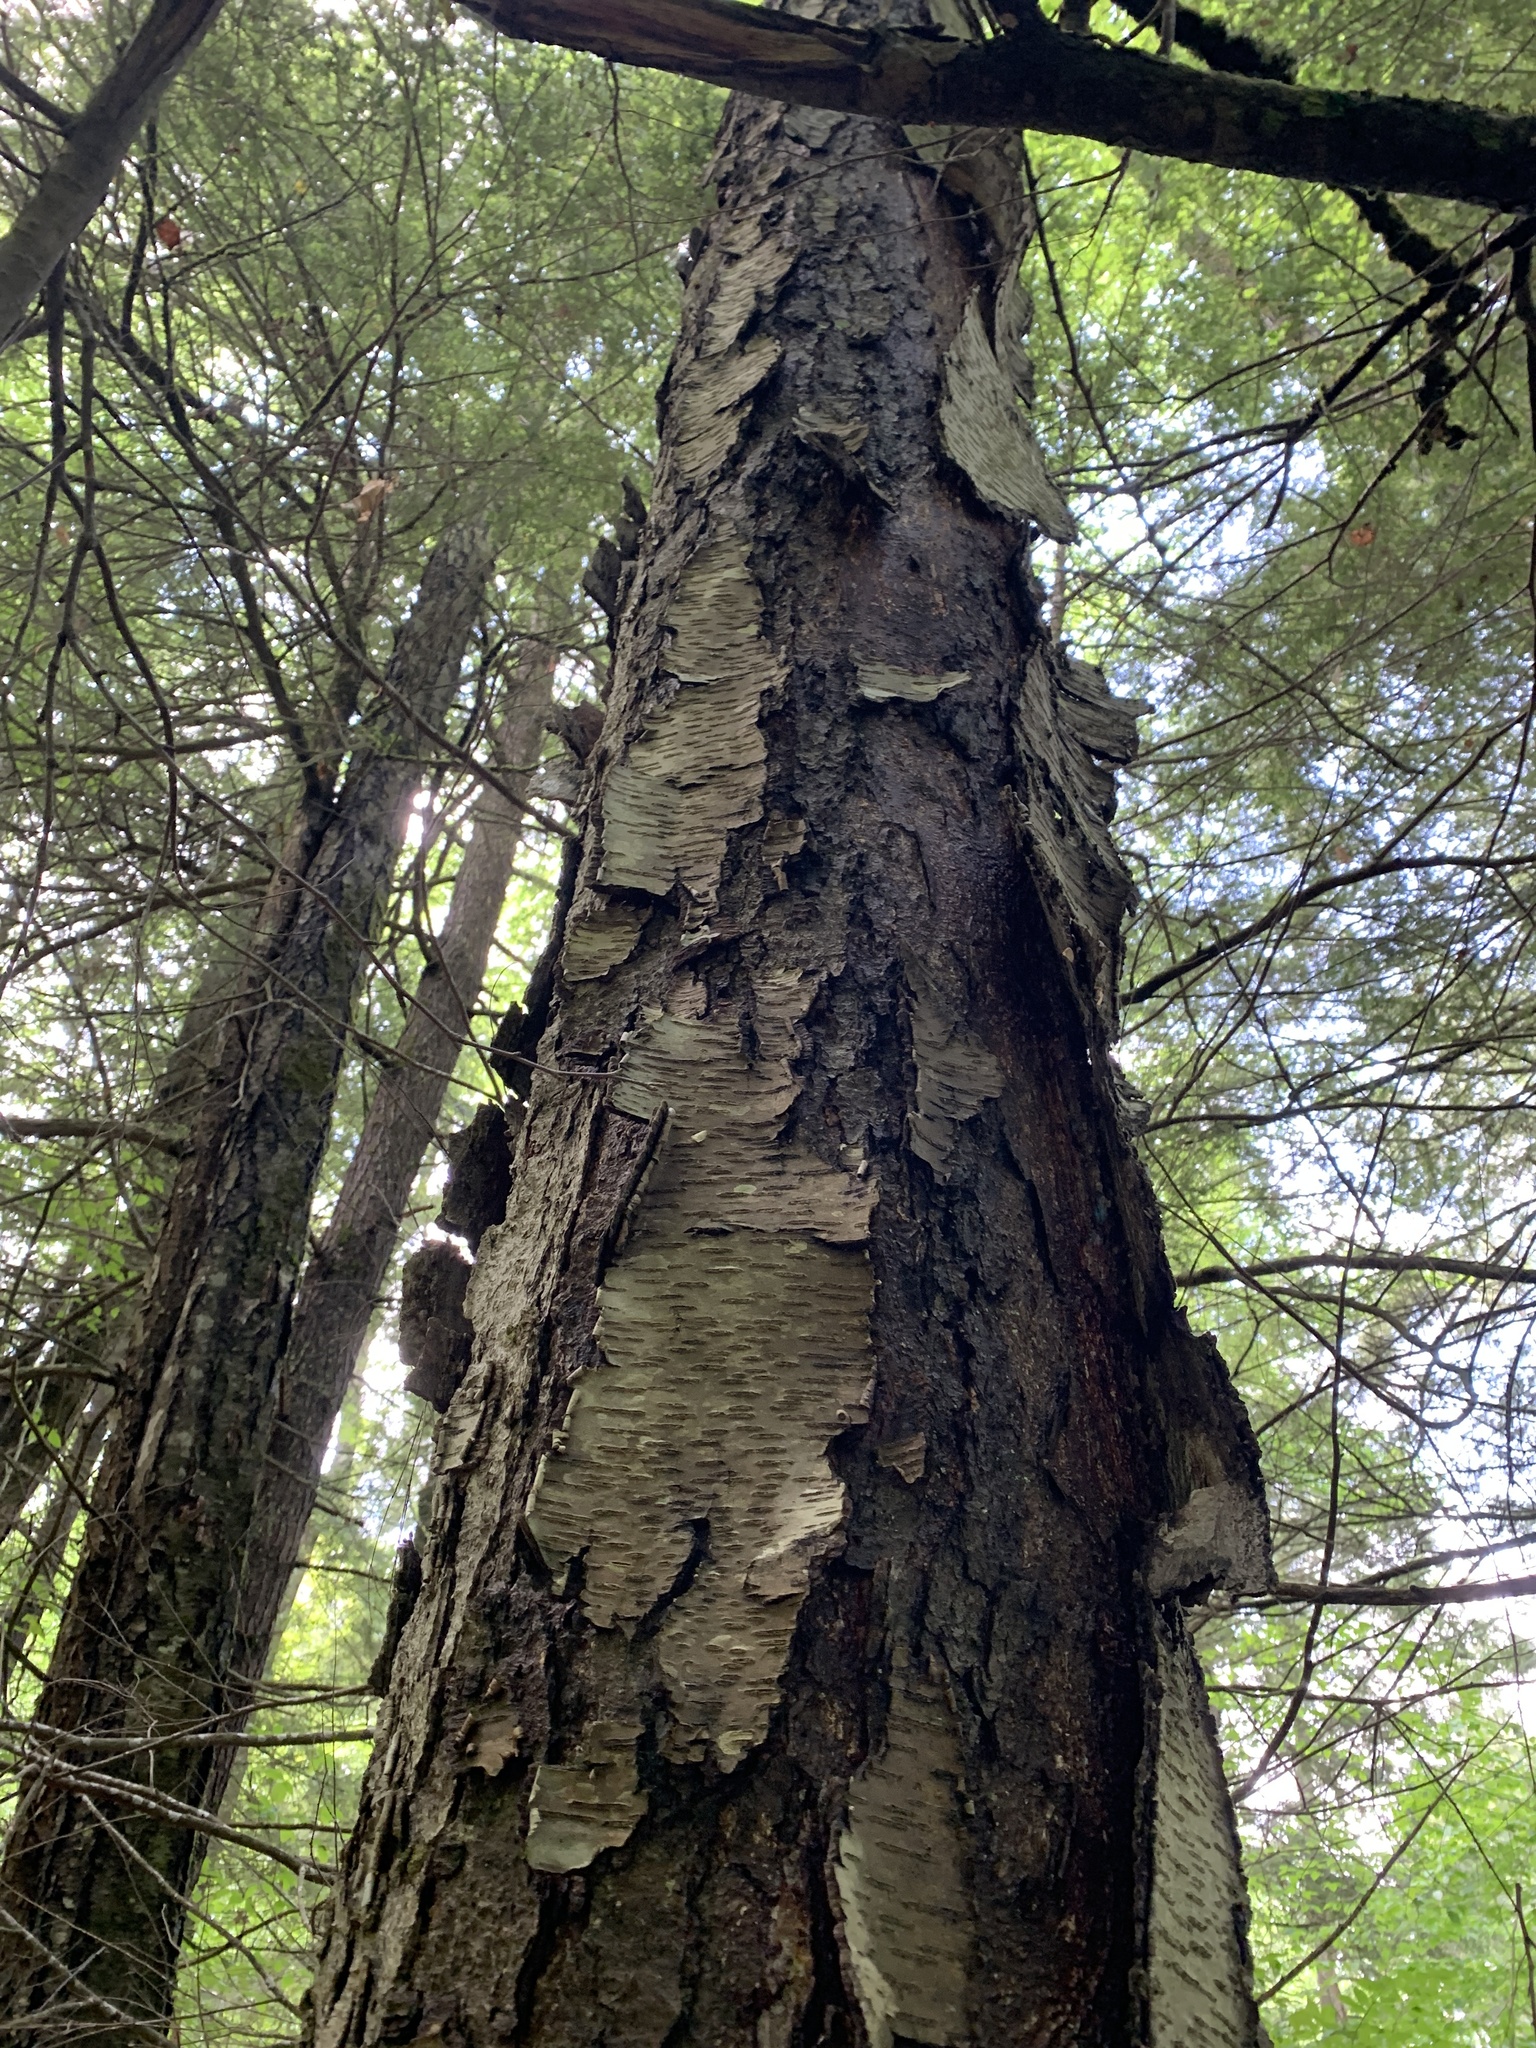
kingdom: Plantae
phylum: Tracheophyta
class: Magnoliopsida
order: Fagales
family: Betulaceae
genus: Betula
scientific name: Betula lenta
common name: Black birch
